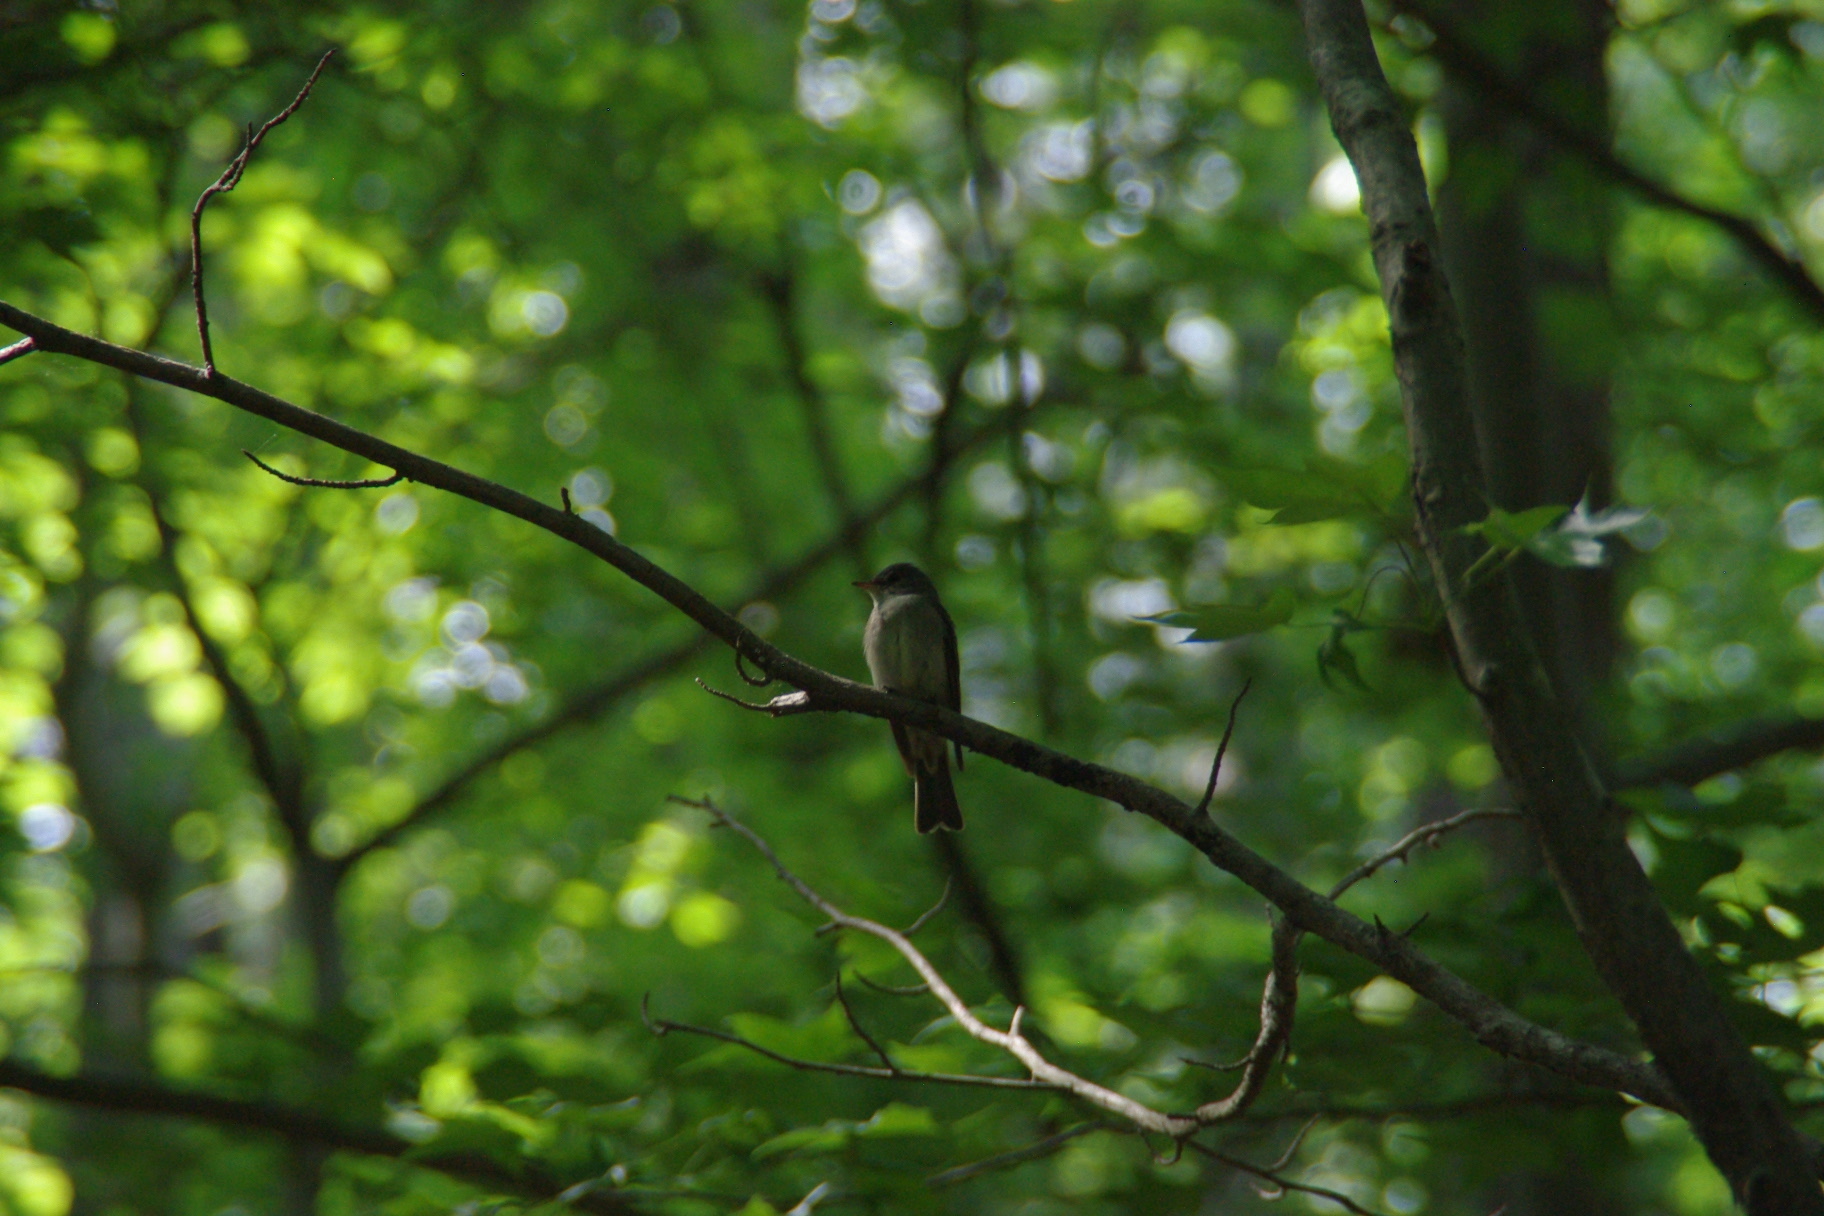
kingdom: Animalia
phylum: Chordata
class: Aves
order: Passeriformes
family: Tyrannidae
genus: Contopus
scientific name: Contopus virens
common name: Eastern wood-pewee
